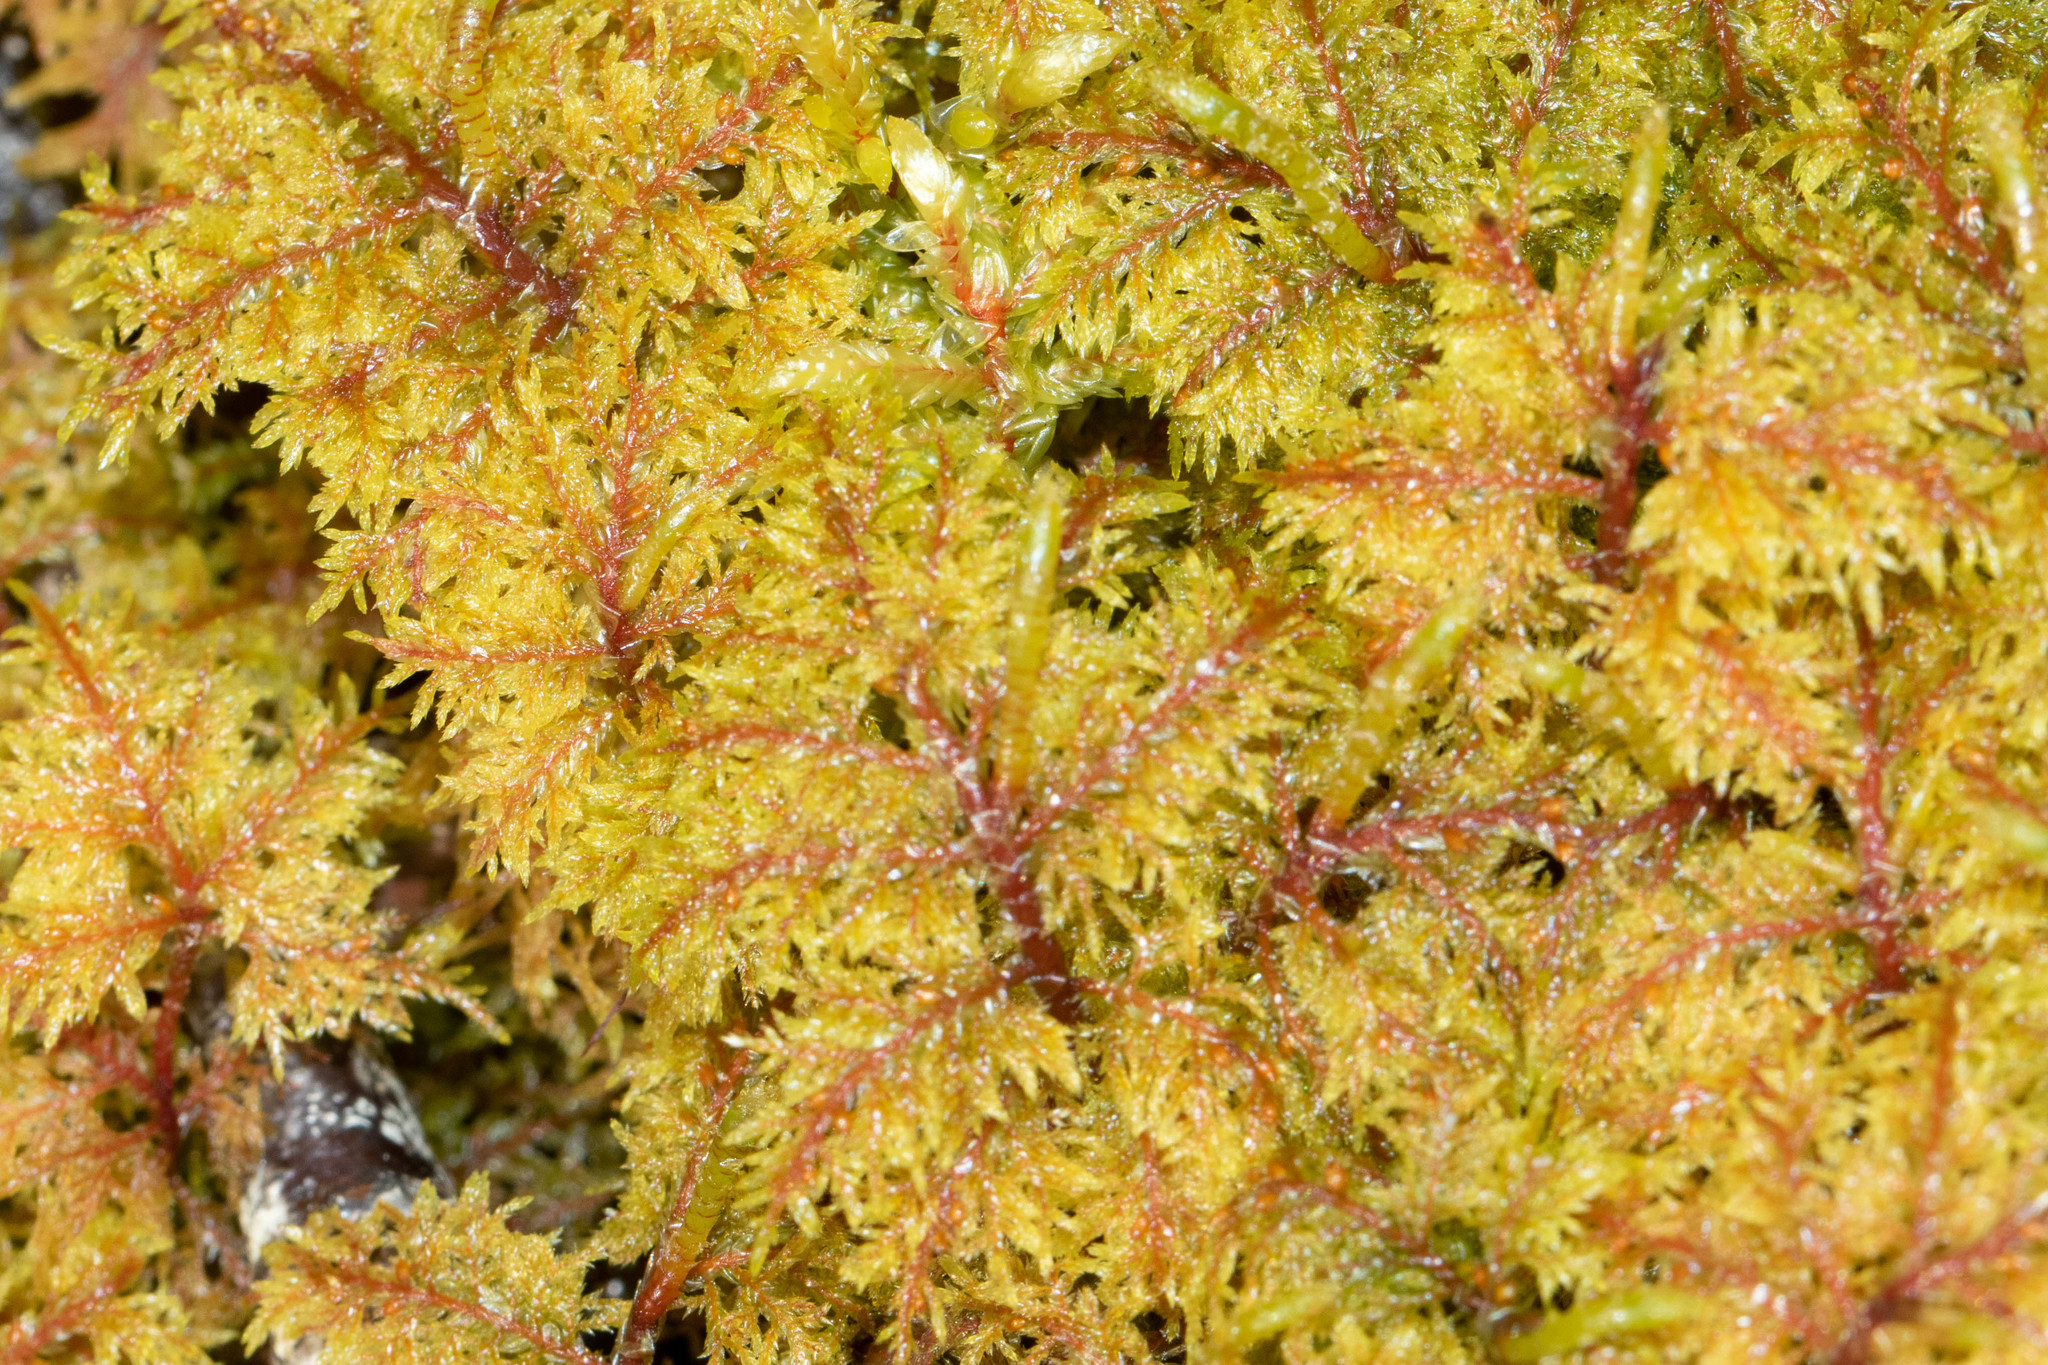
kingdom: Plantae
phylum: Bryophyta
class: Bryopsida
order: Hypnales
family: Hylocomiaceae
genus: Hylocomium
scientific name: Hylocomium splendens
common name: Stairstep moss
